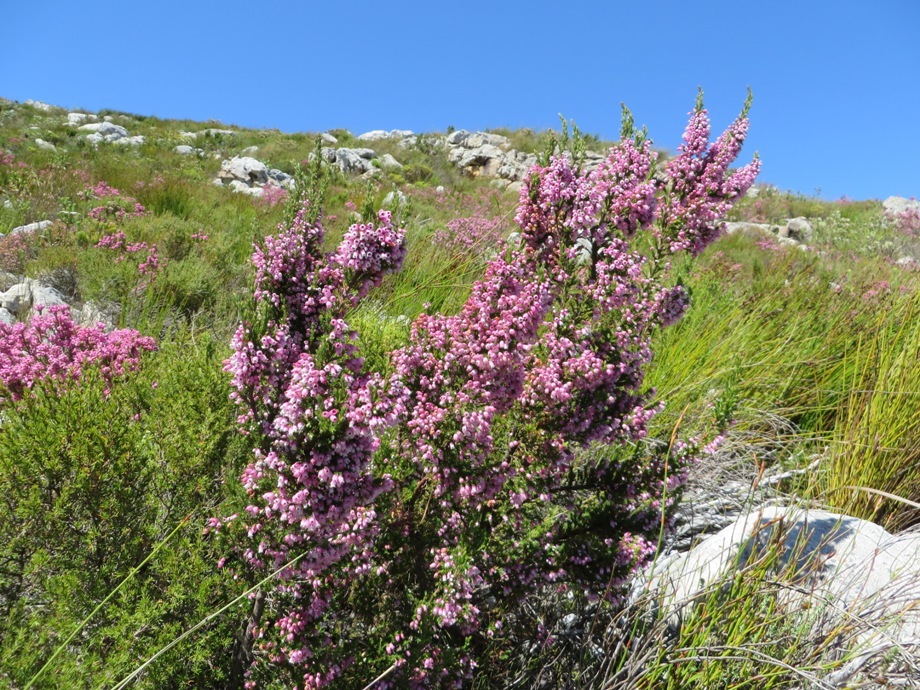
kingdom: Plantae
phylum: Tracheophyta
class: Magnoliopsida
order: Ericales
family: Ericaceae
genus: Erica
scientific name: Erica sitiens
